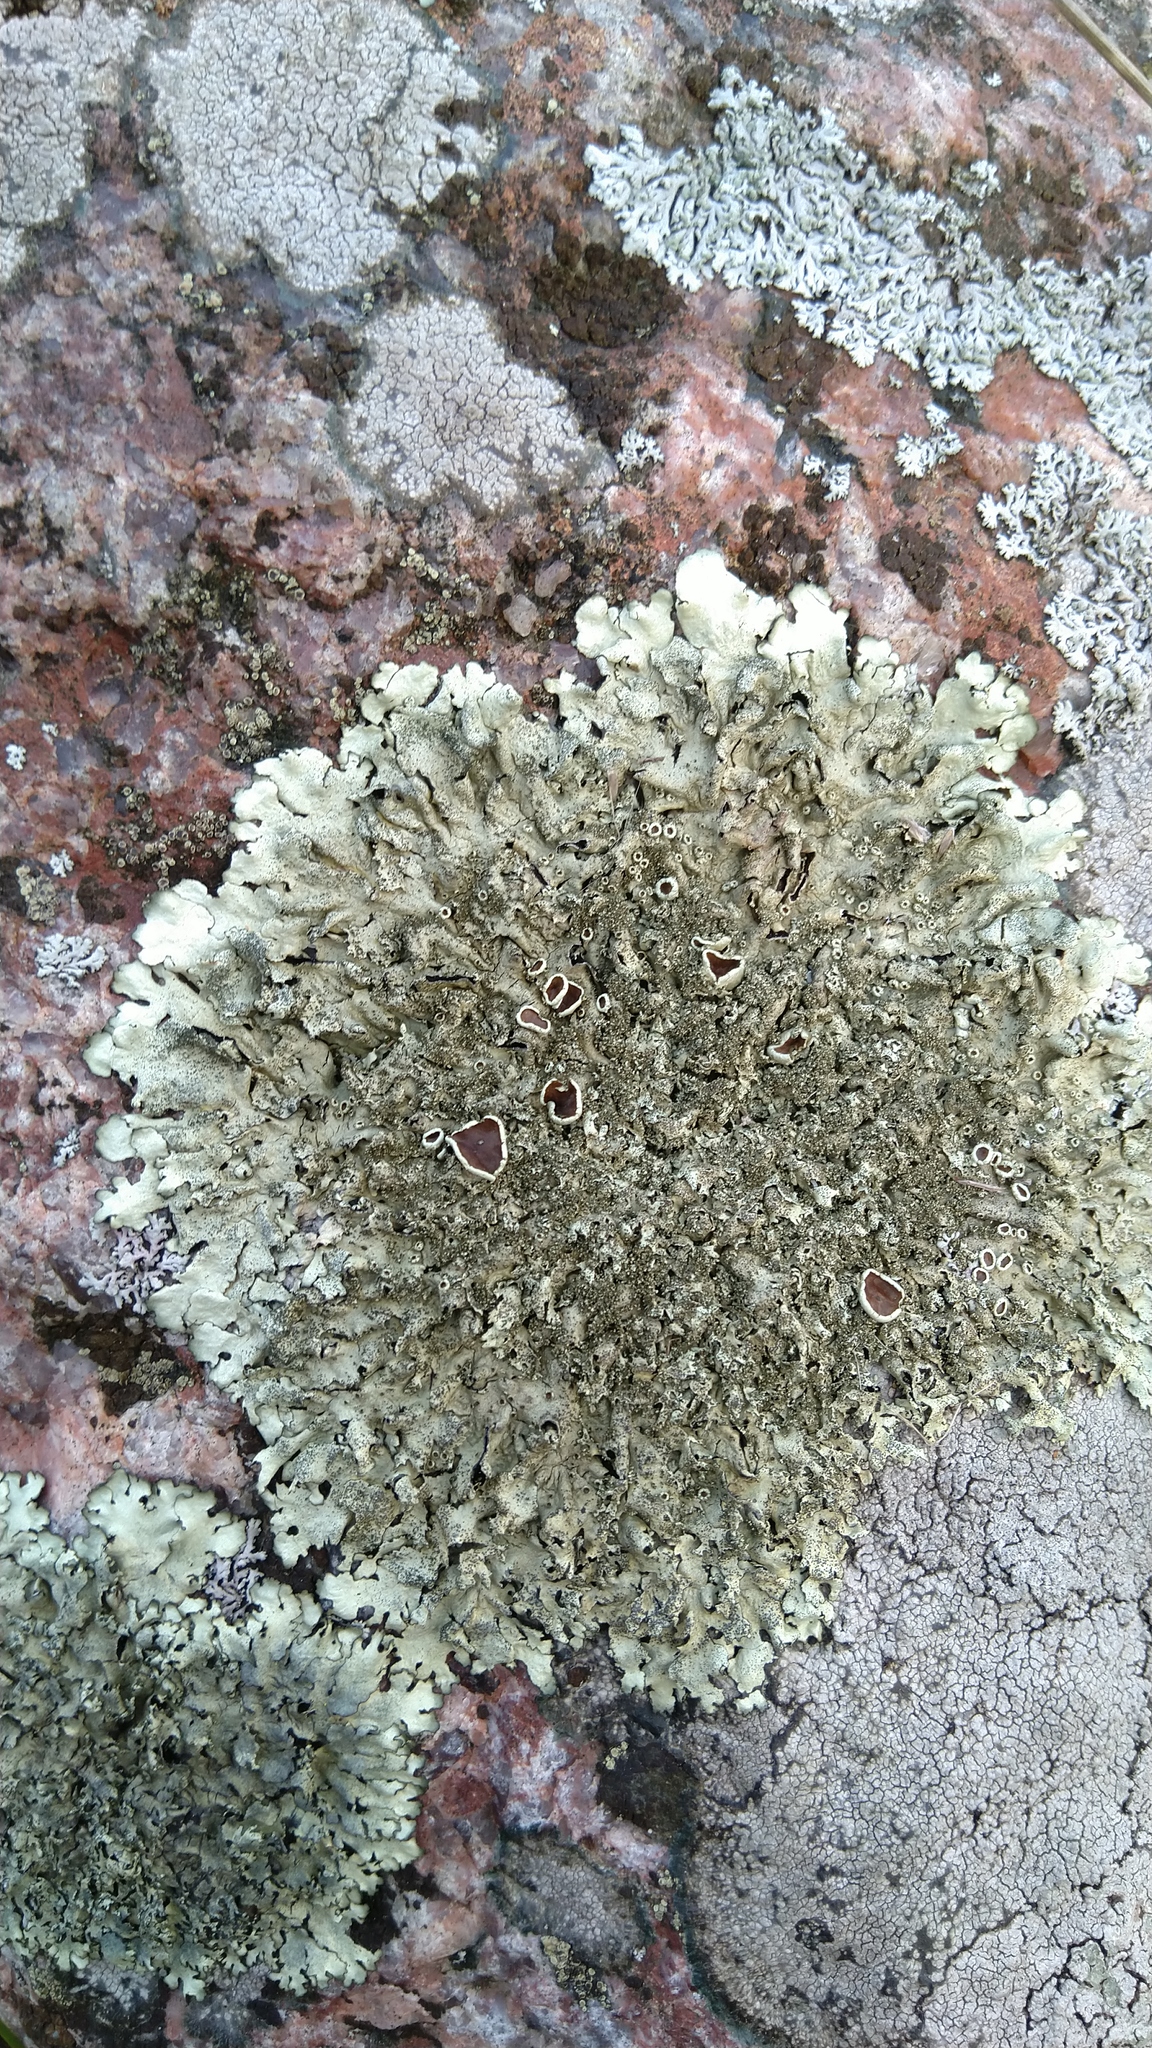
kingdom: Fungi
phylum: Ascomycota
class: Lecanoromycetes
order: Lecanorales
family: Parmeliaceae
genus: Xanthoparmelia
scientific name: Xanthoparmelia conspersa
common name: Peppered rock shield
